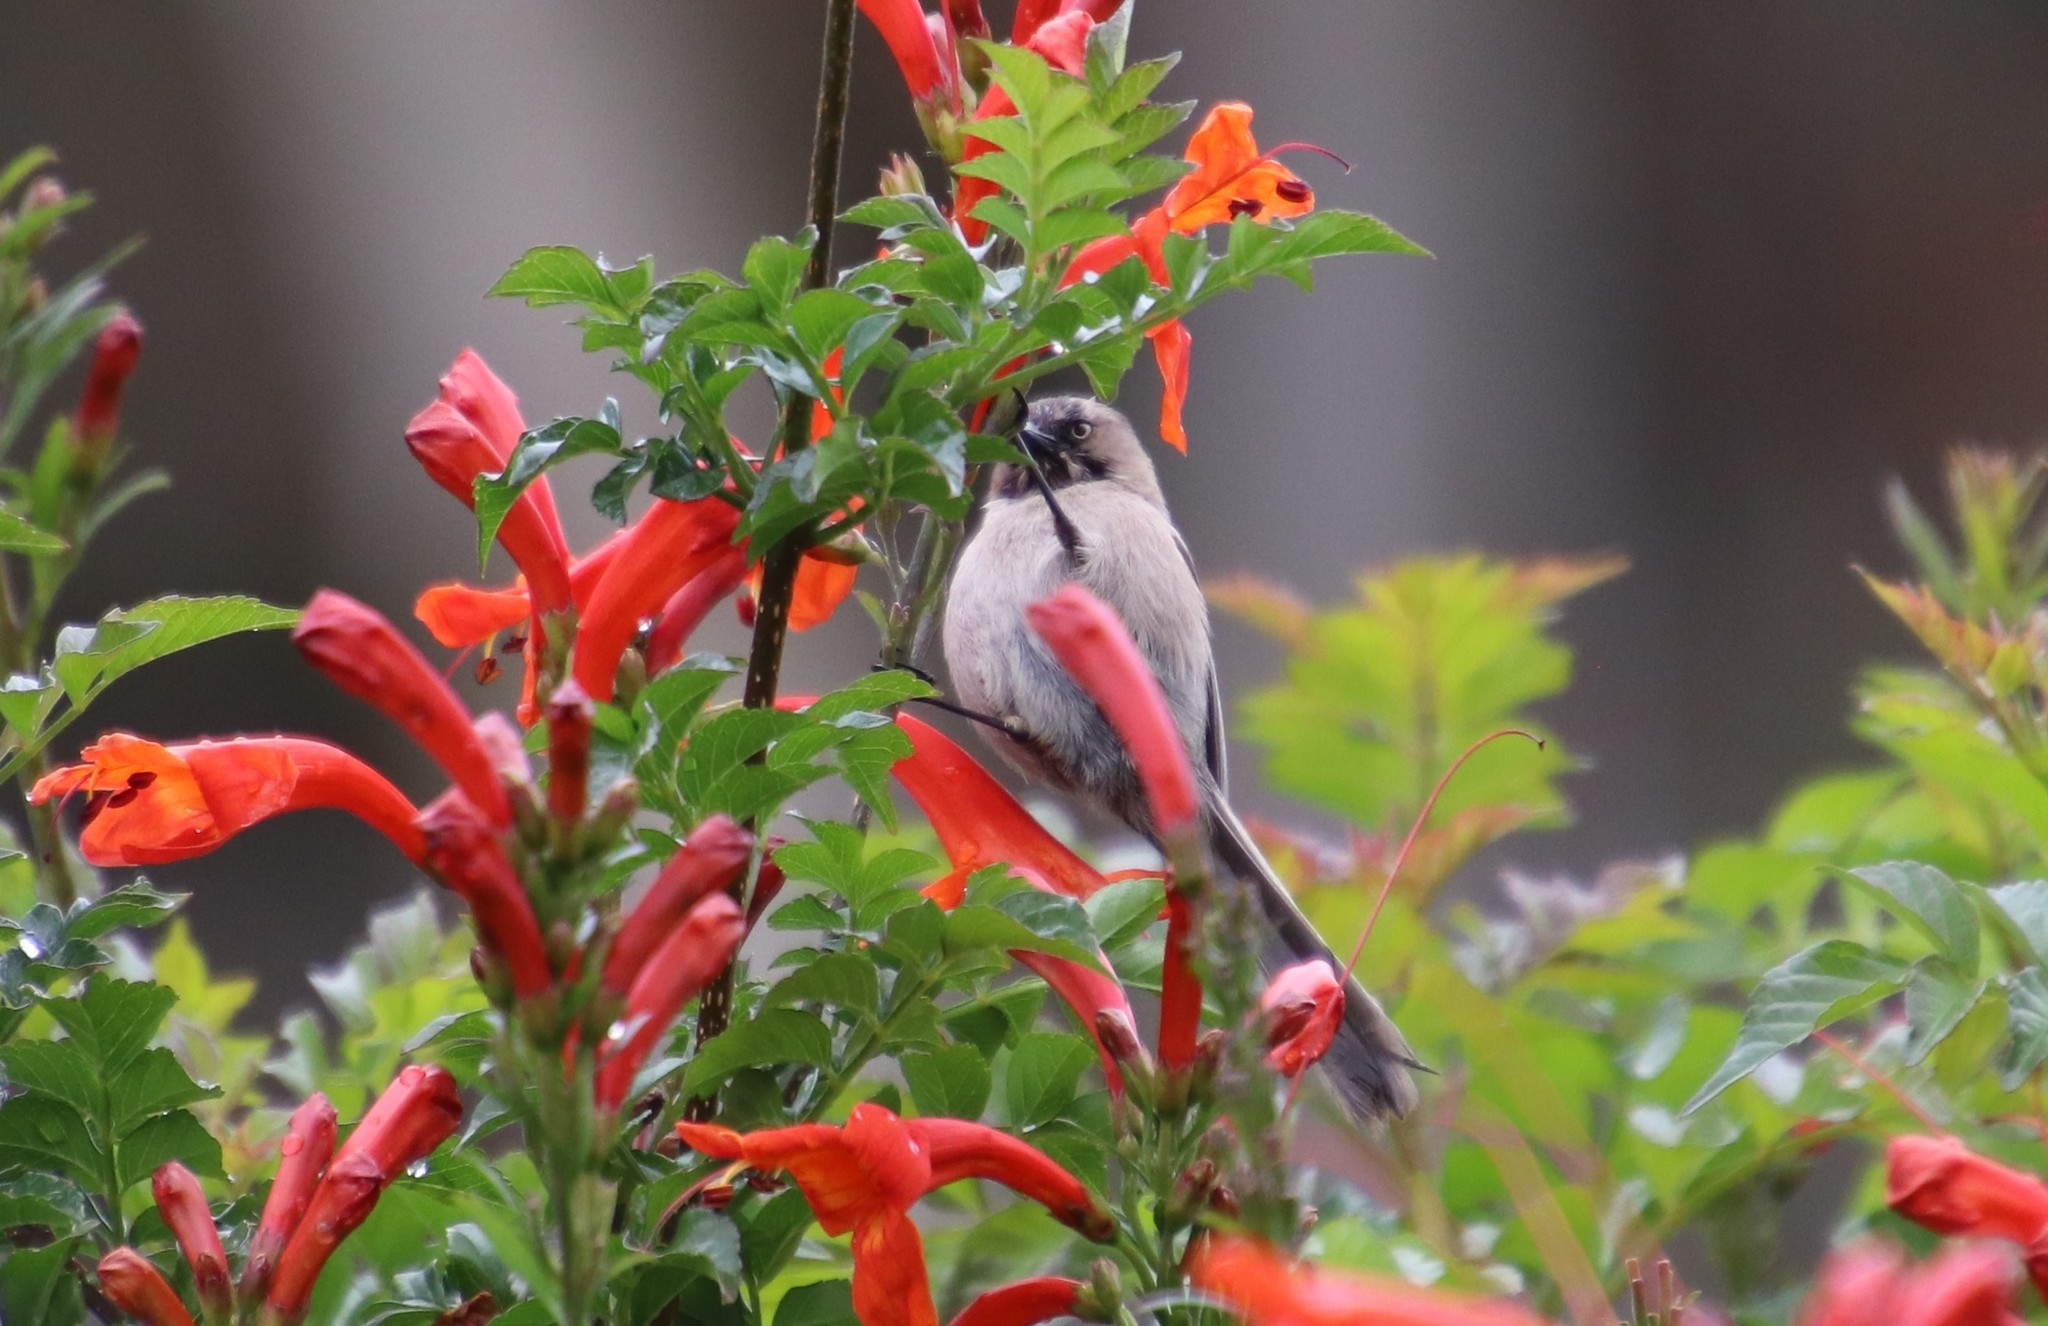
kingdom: Animalia
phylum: Chordata
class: Aves
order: Passeriformes
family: Aegithalidae
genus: Psaltriparus
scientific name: Psaltriparus minimus
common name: American bushtit
